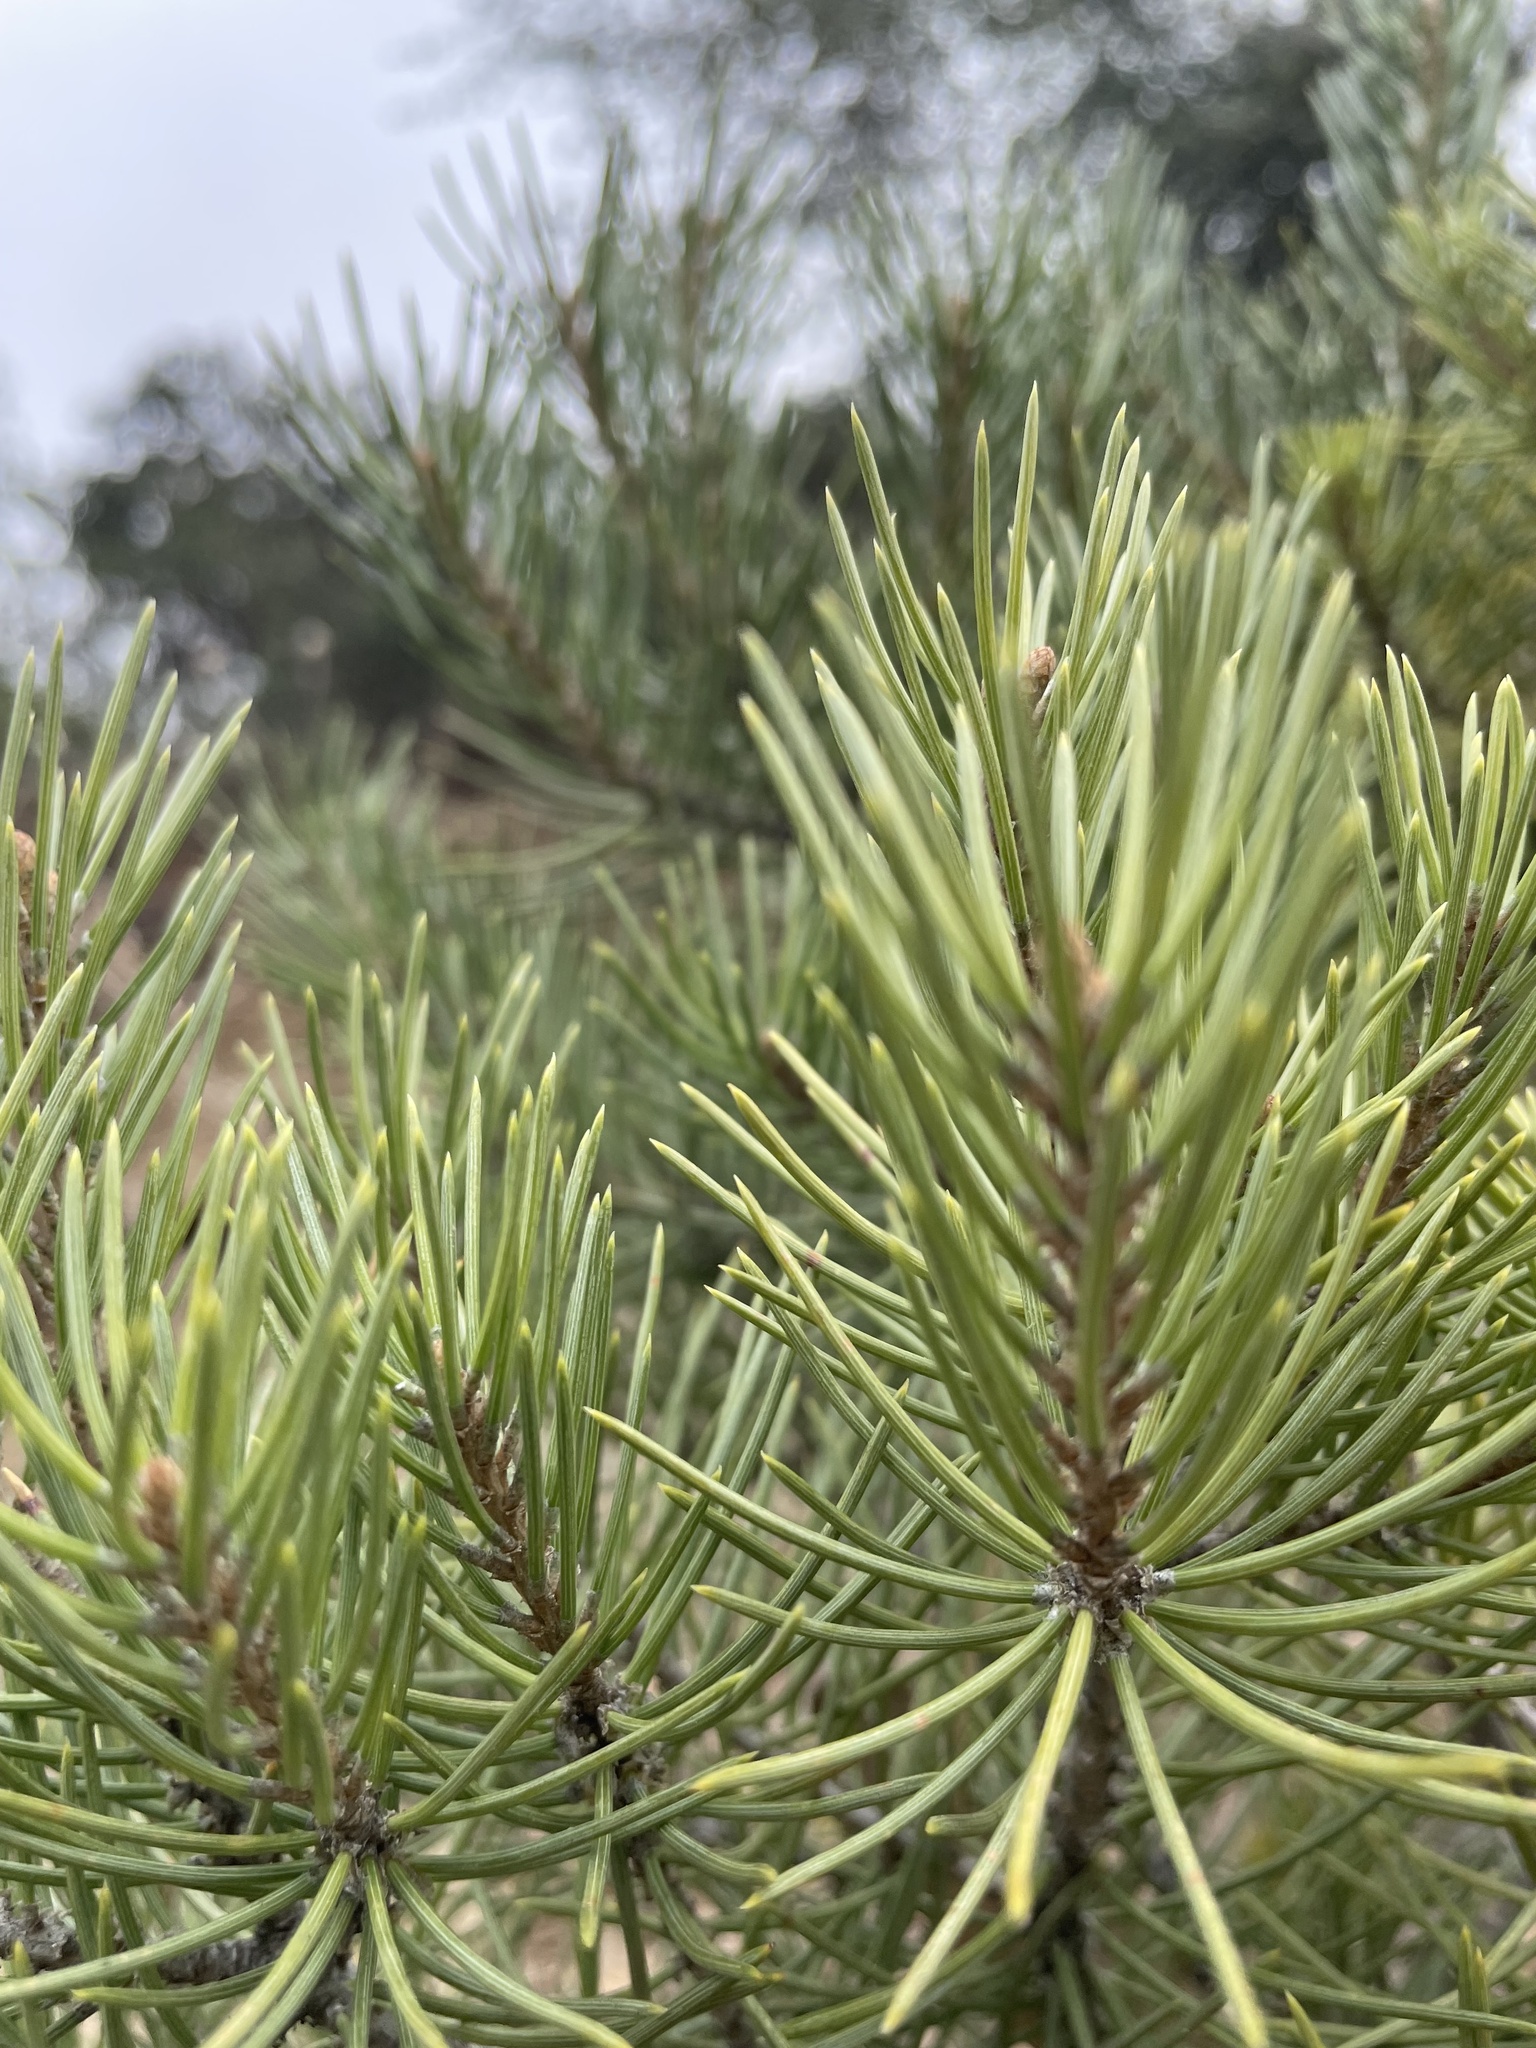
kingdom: Plantae
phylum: Tracheophyta
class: Pinopsida
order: Pinales
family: Pinaceae
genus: Pinus
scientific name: Pinus monophylla
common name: One-leaved nut pine
